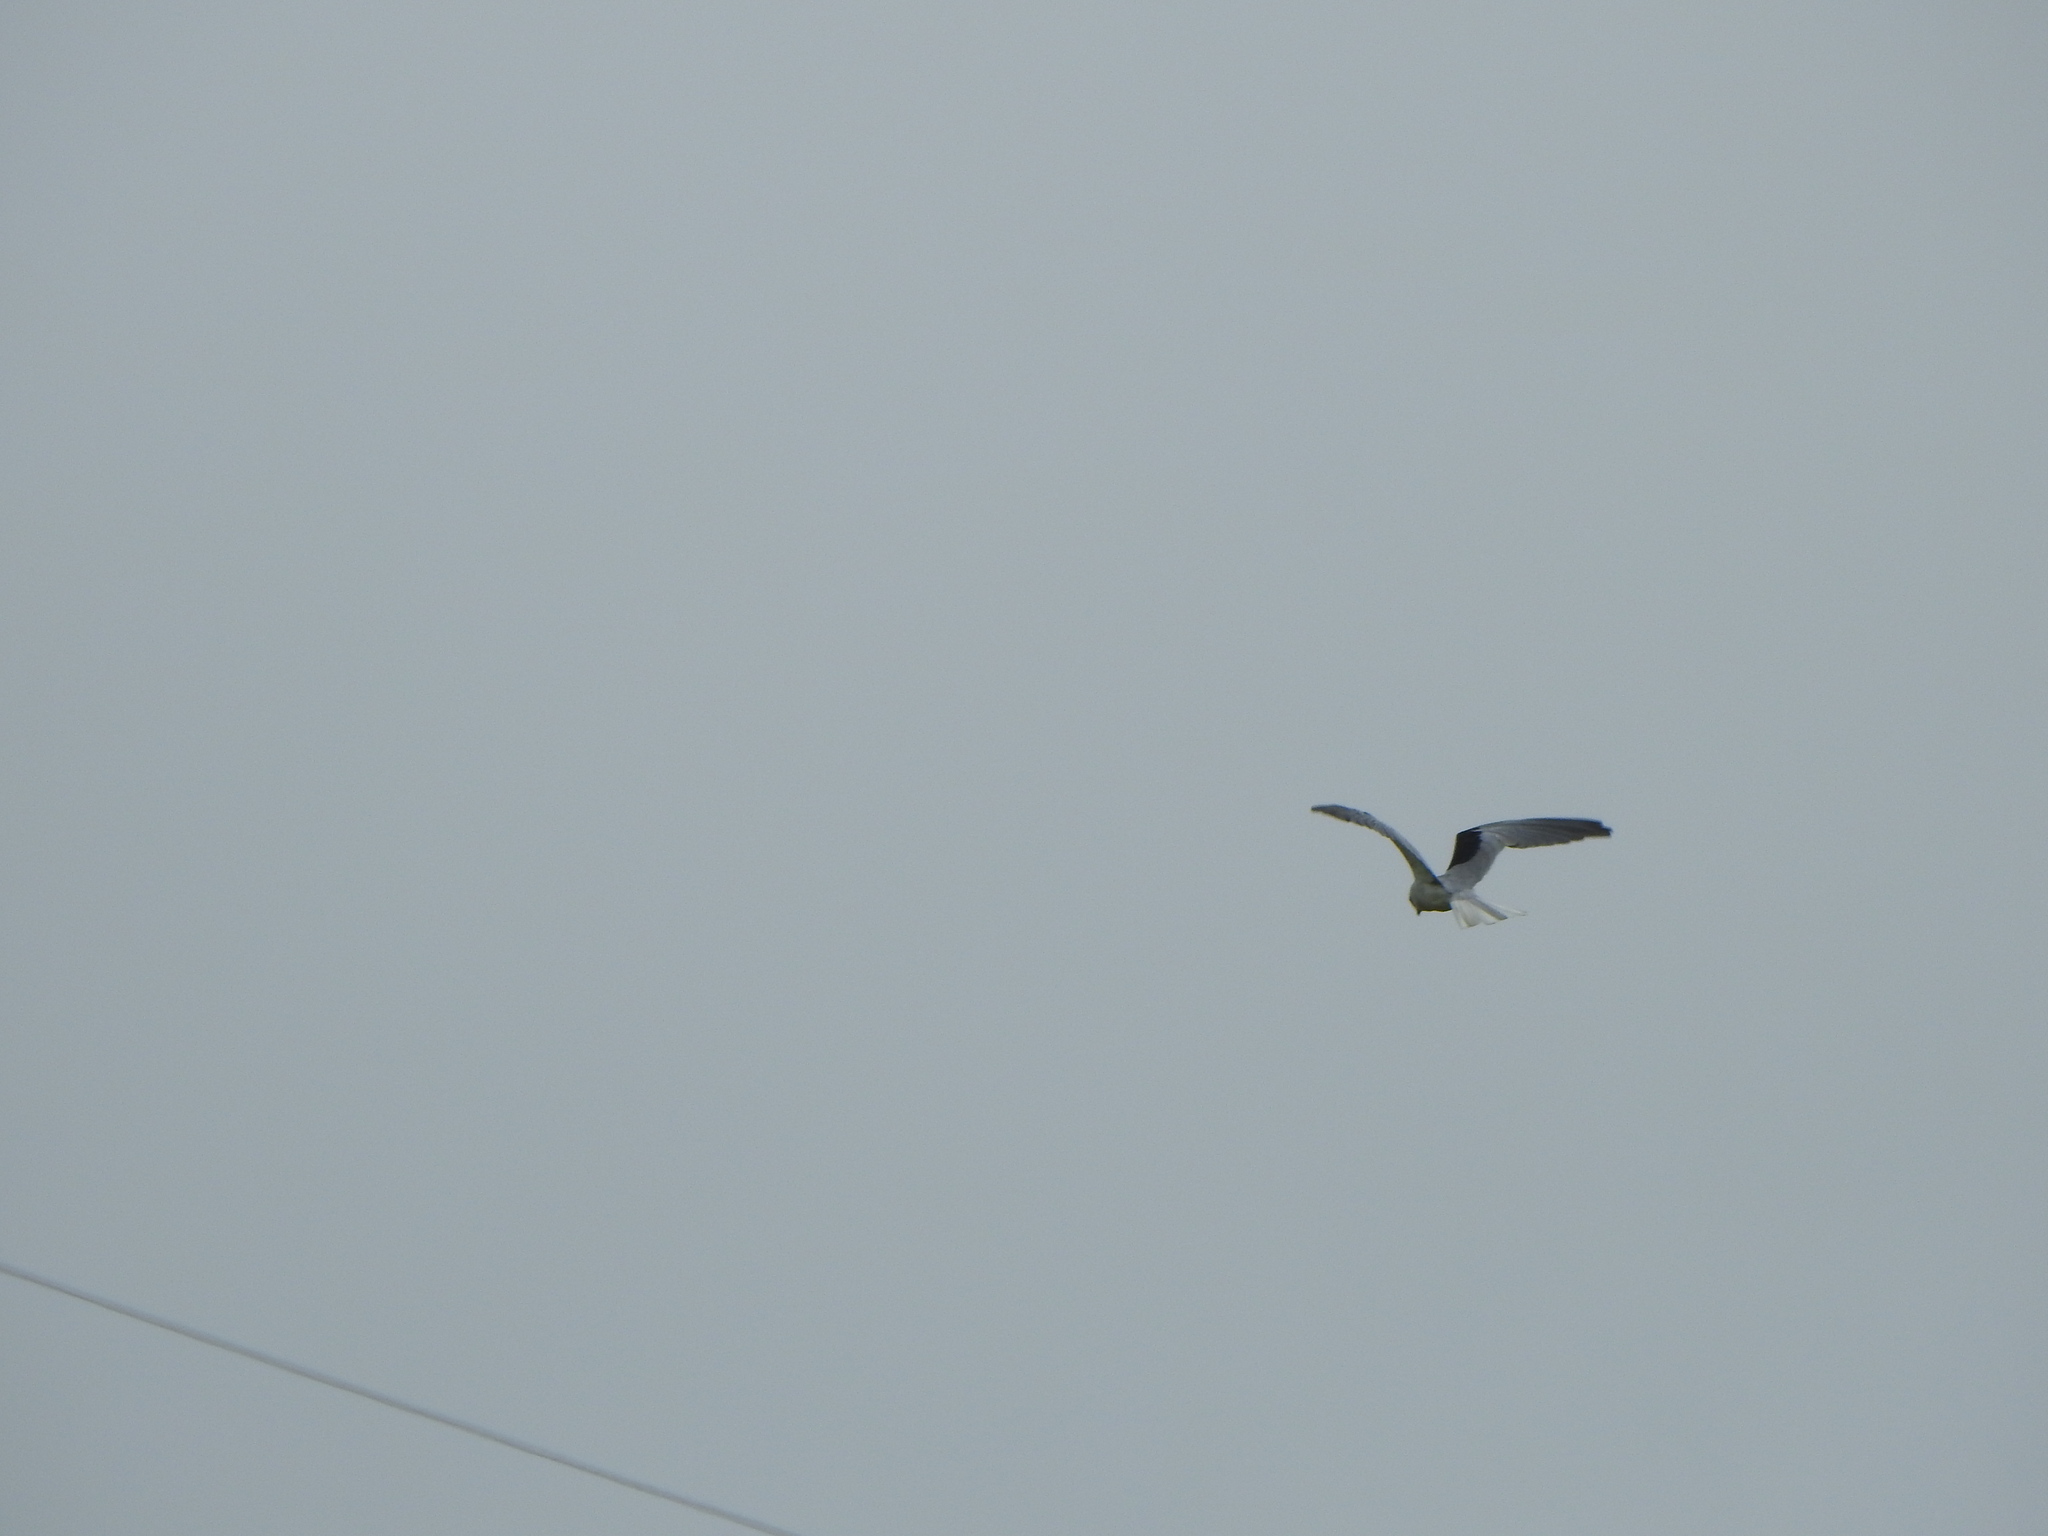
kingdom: Animalia
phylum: Chordata
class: Aves
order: Accipitriformes
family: Accipitridae
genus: Elanus
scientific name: Elanus leucurus
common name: White-tailed kite
